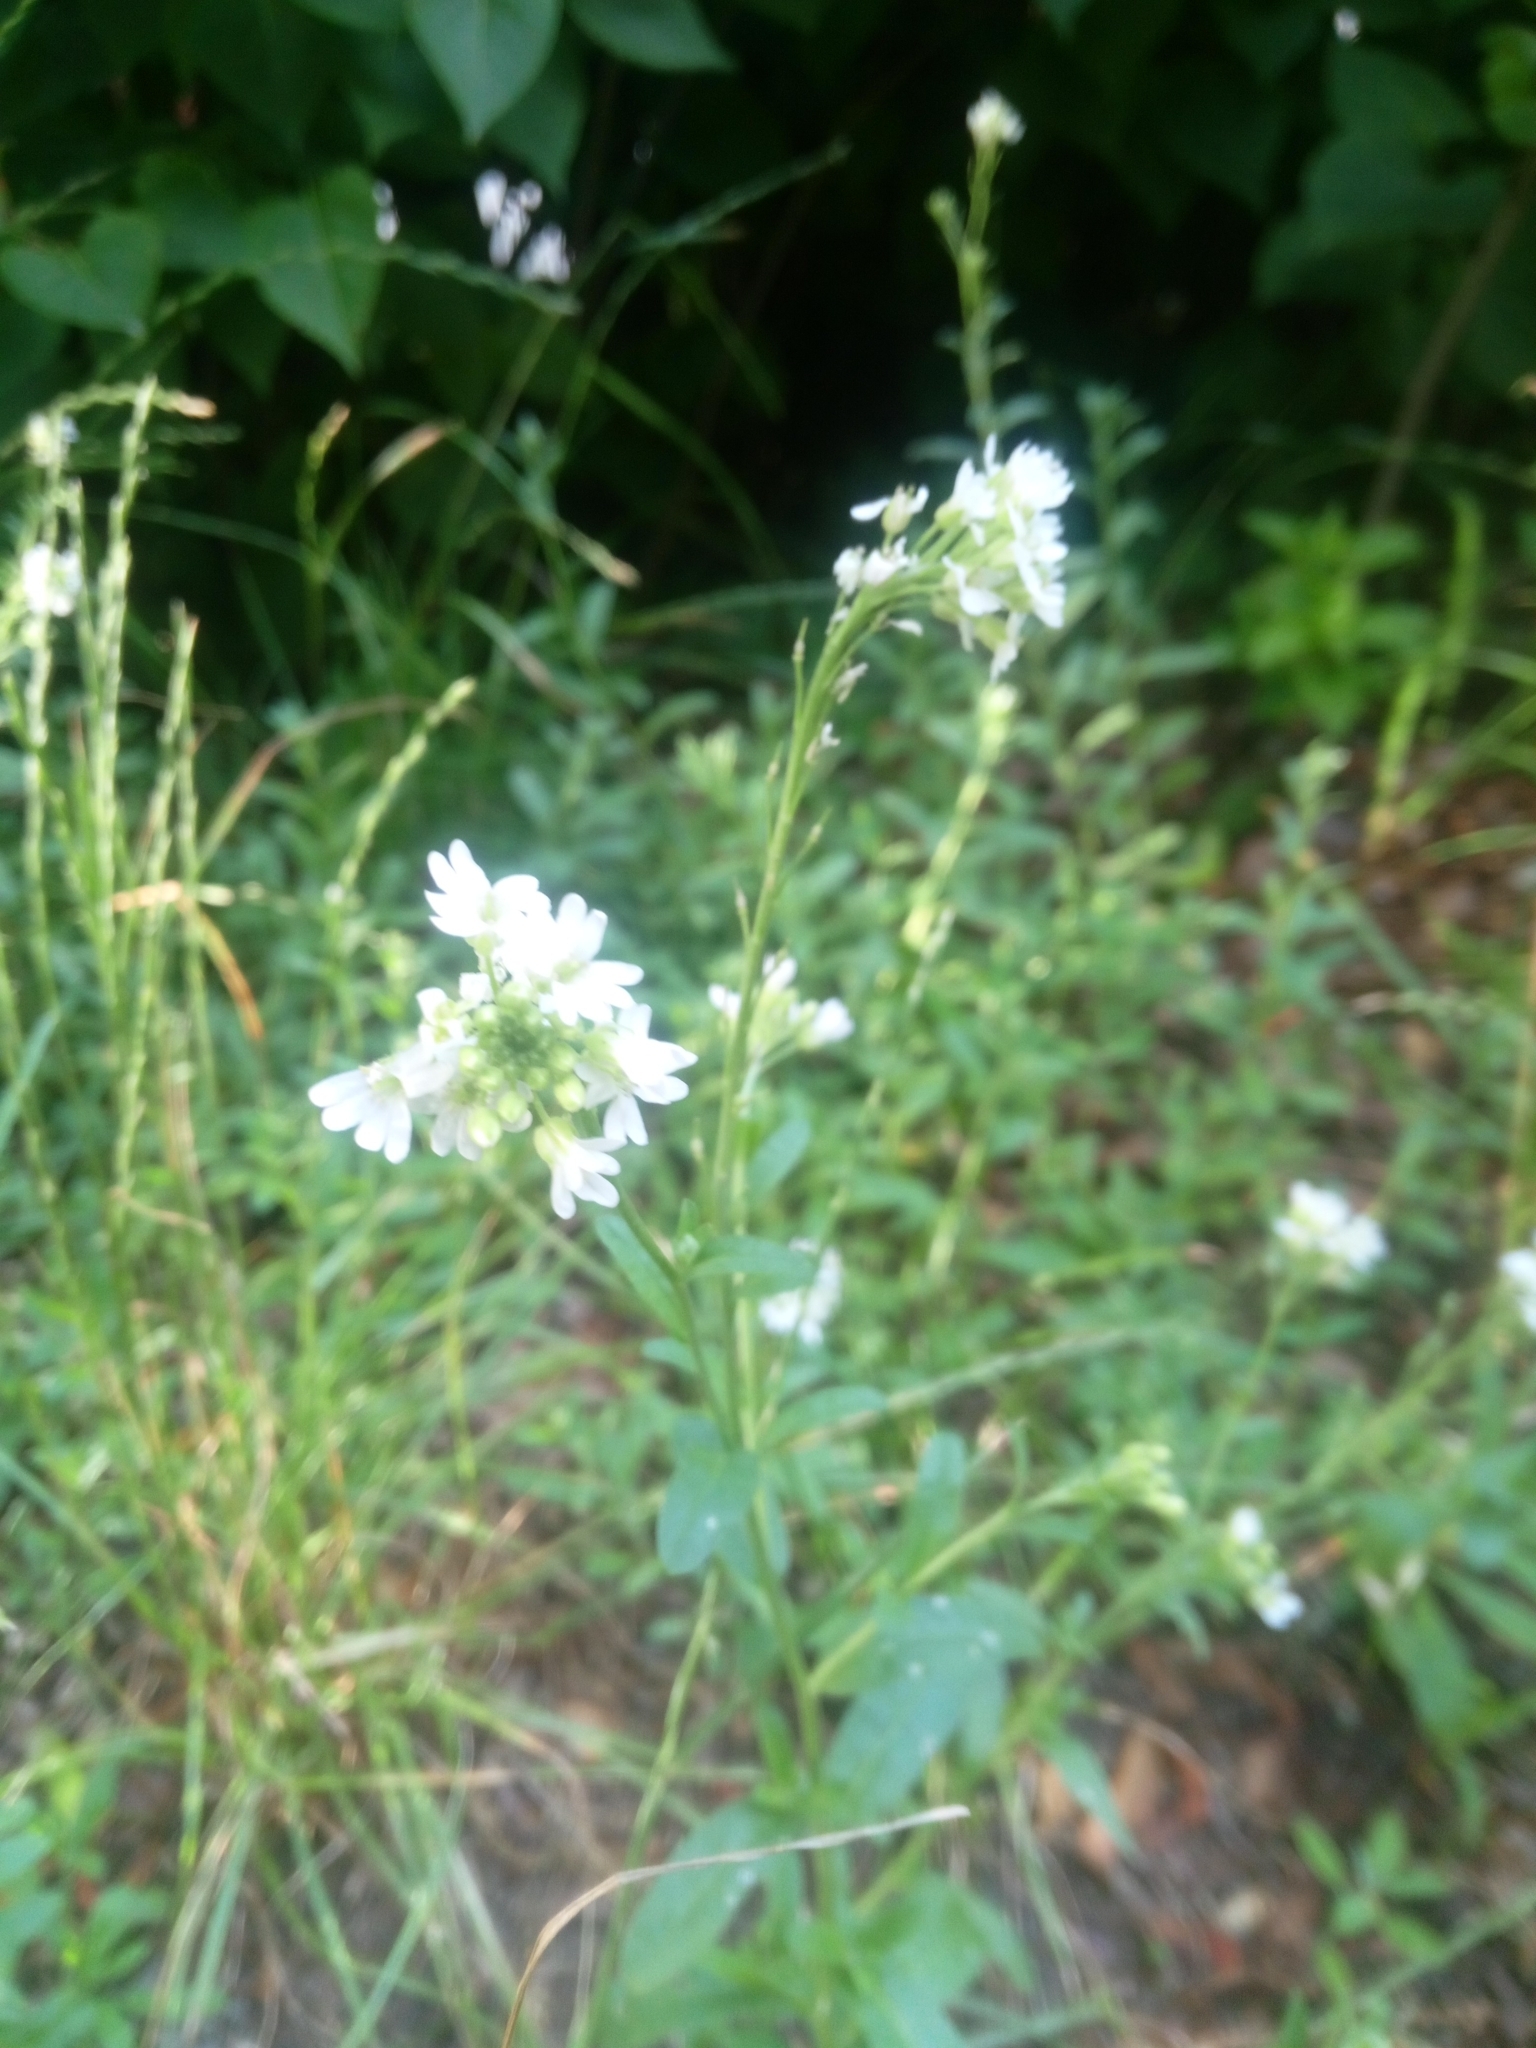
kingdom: Plantae
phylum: Tracheophyta
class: Magnoliopsida
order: Brassicales
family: Brassicaceae
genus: Berteroa
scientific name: Berteroa incana
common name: Hoary alison
